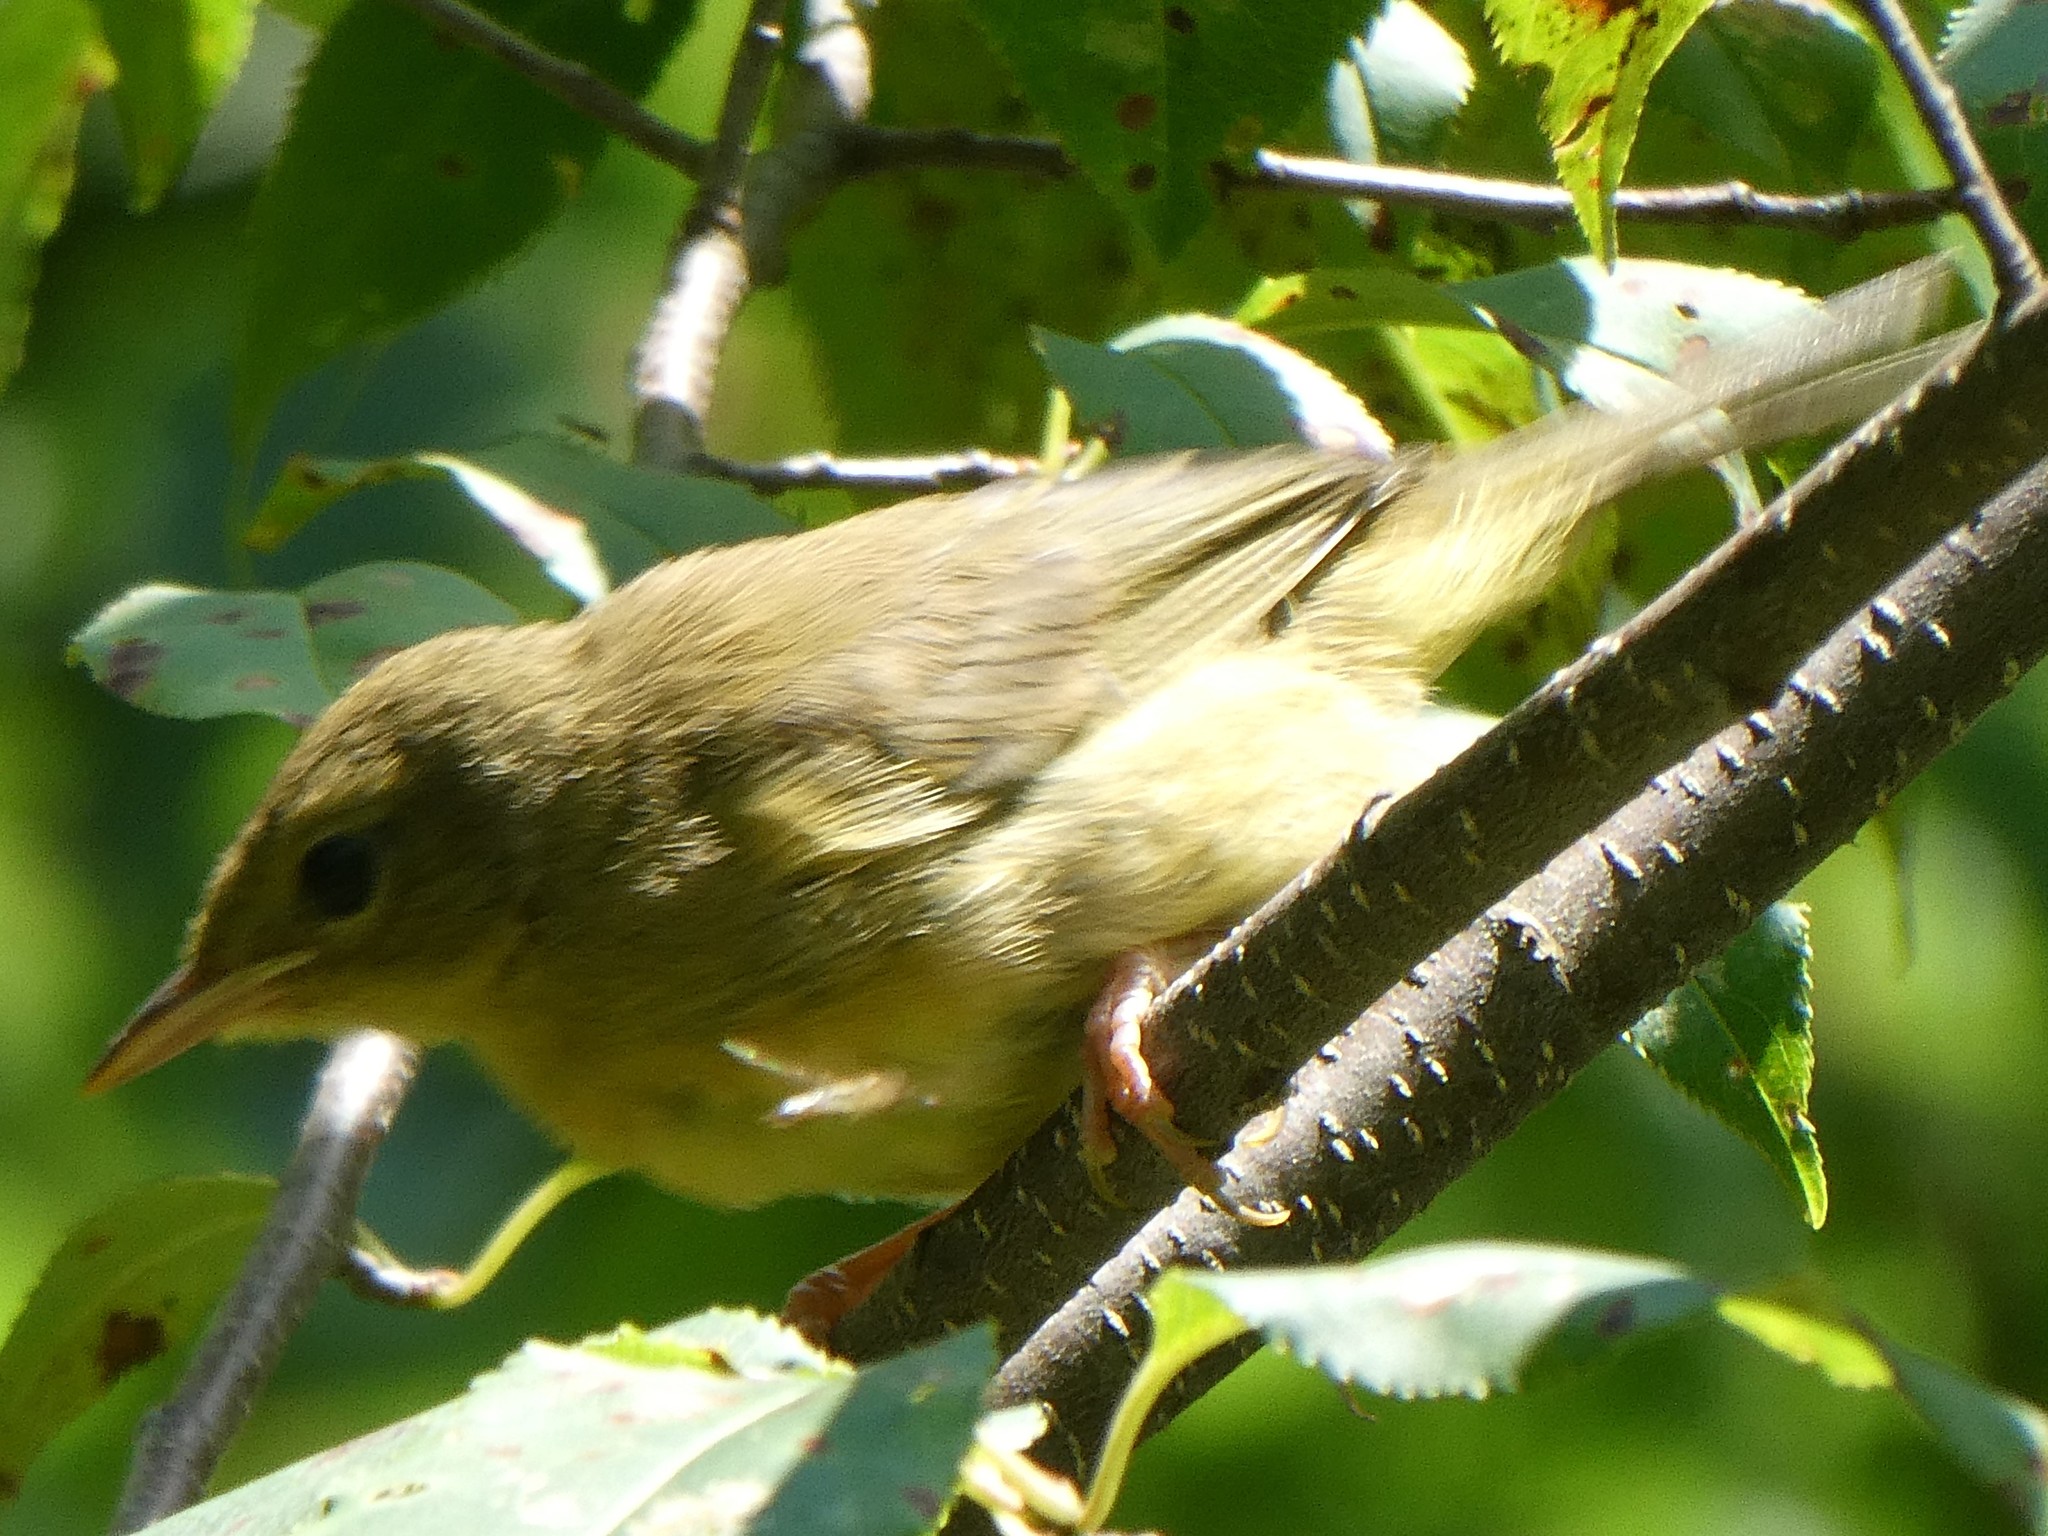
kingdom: Animalia
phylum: Chordata
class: Aves
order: Passeriformes
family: Parulidae
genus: Geothlypis
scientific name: Geothlypis trichas
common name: Common yellowthroat
